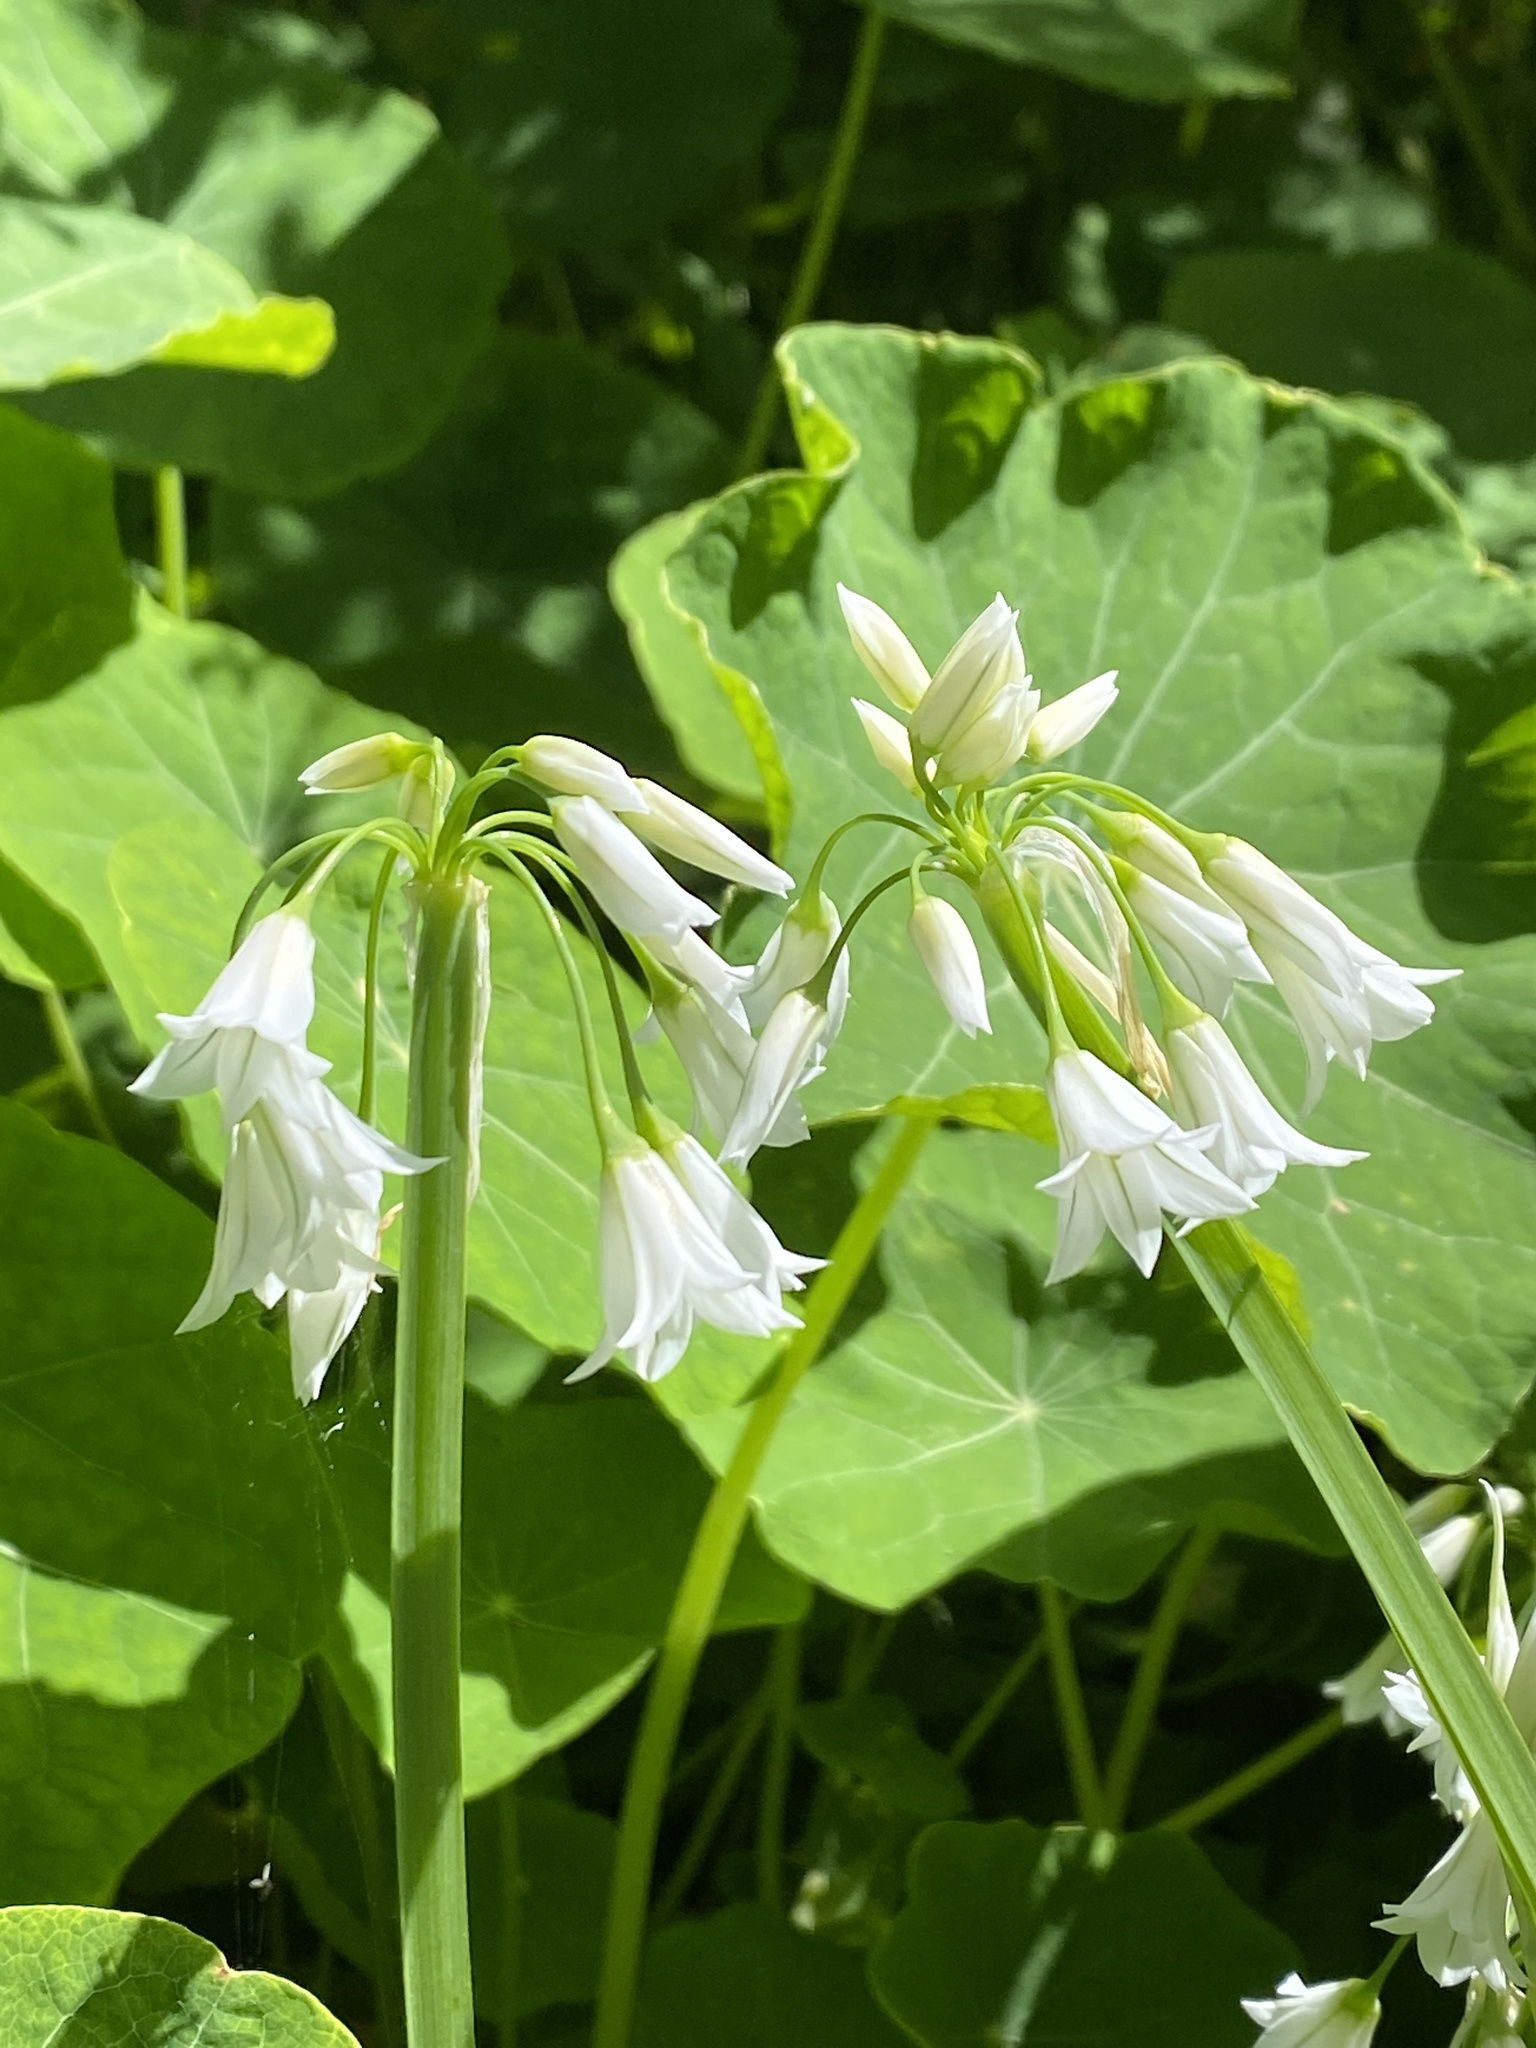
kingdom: Plantae
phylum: Tracheophyta
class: Liliopsida
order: Asparagales
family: Amaryllidaceae
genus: Allium
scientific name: Allium triquetrum
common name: Three-cornered garlic
